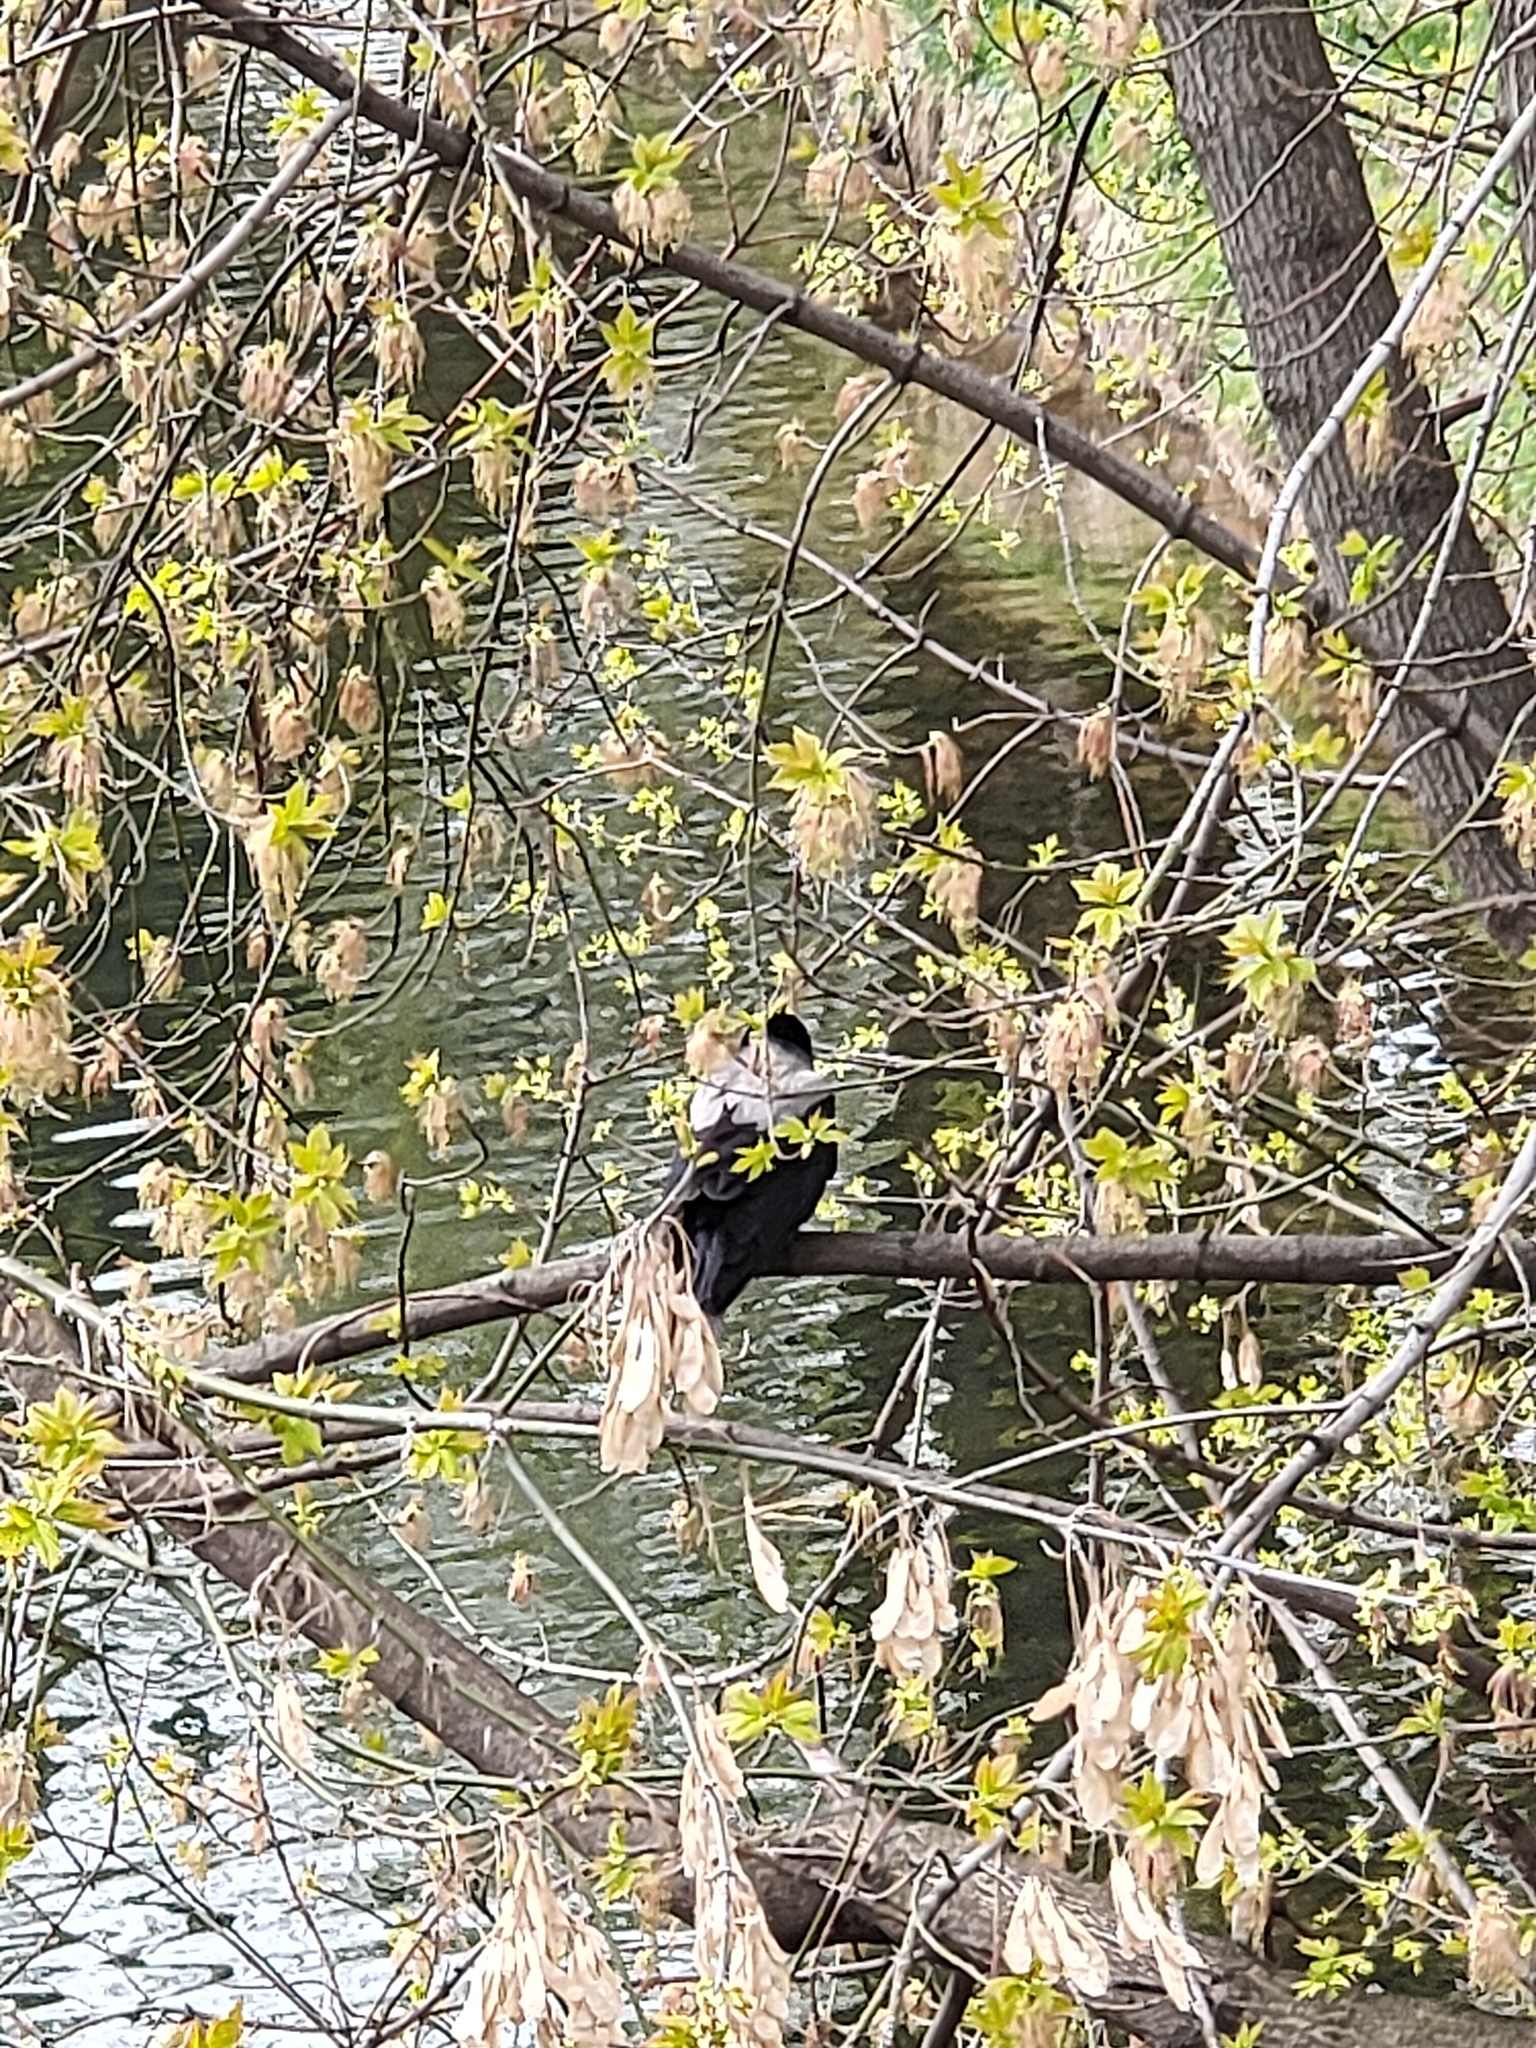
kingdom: Animalia
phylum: Chordata
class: Aves
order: Passeriformes
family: Corvidae
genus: Corvus
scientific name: Corvus cornix
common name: Hooded crow
